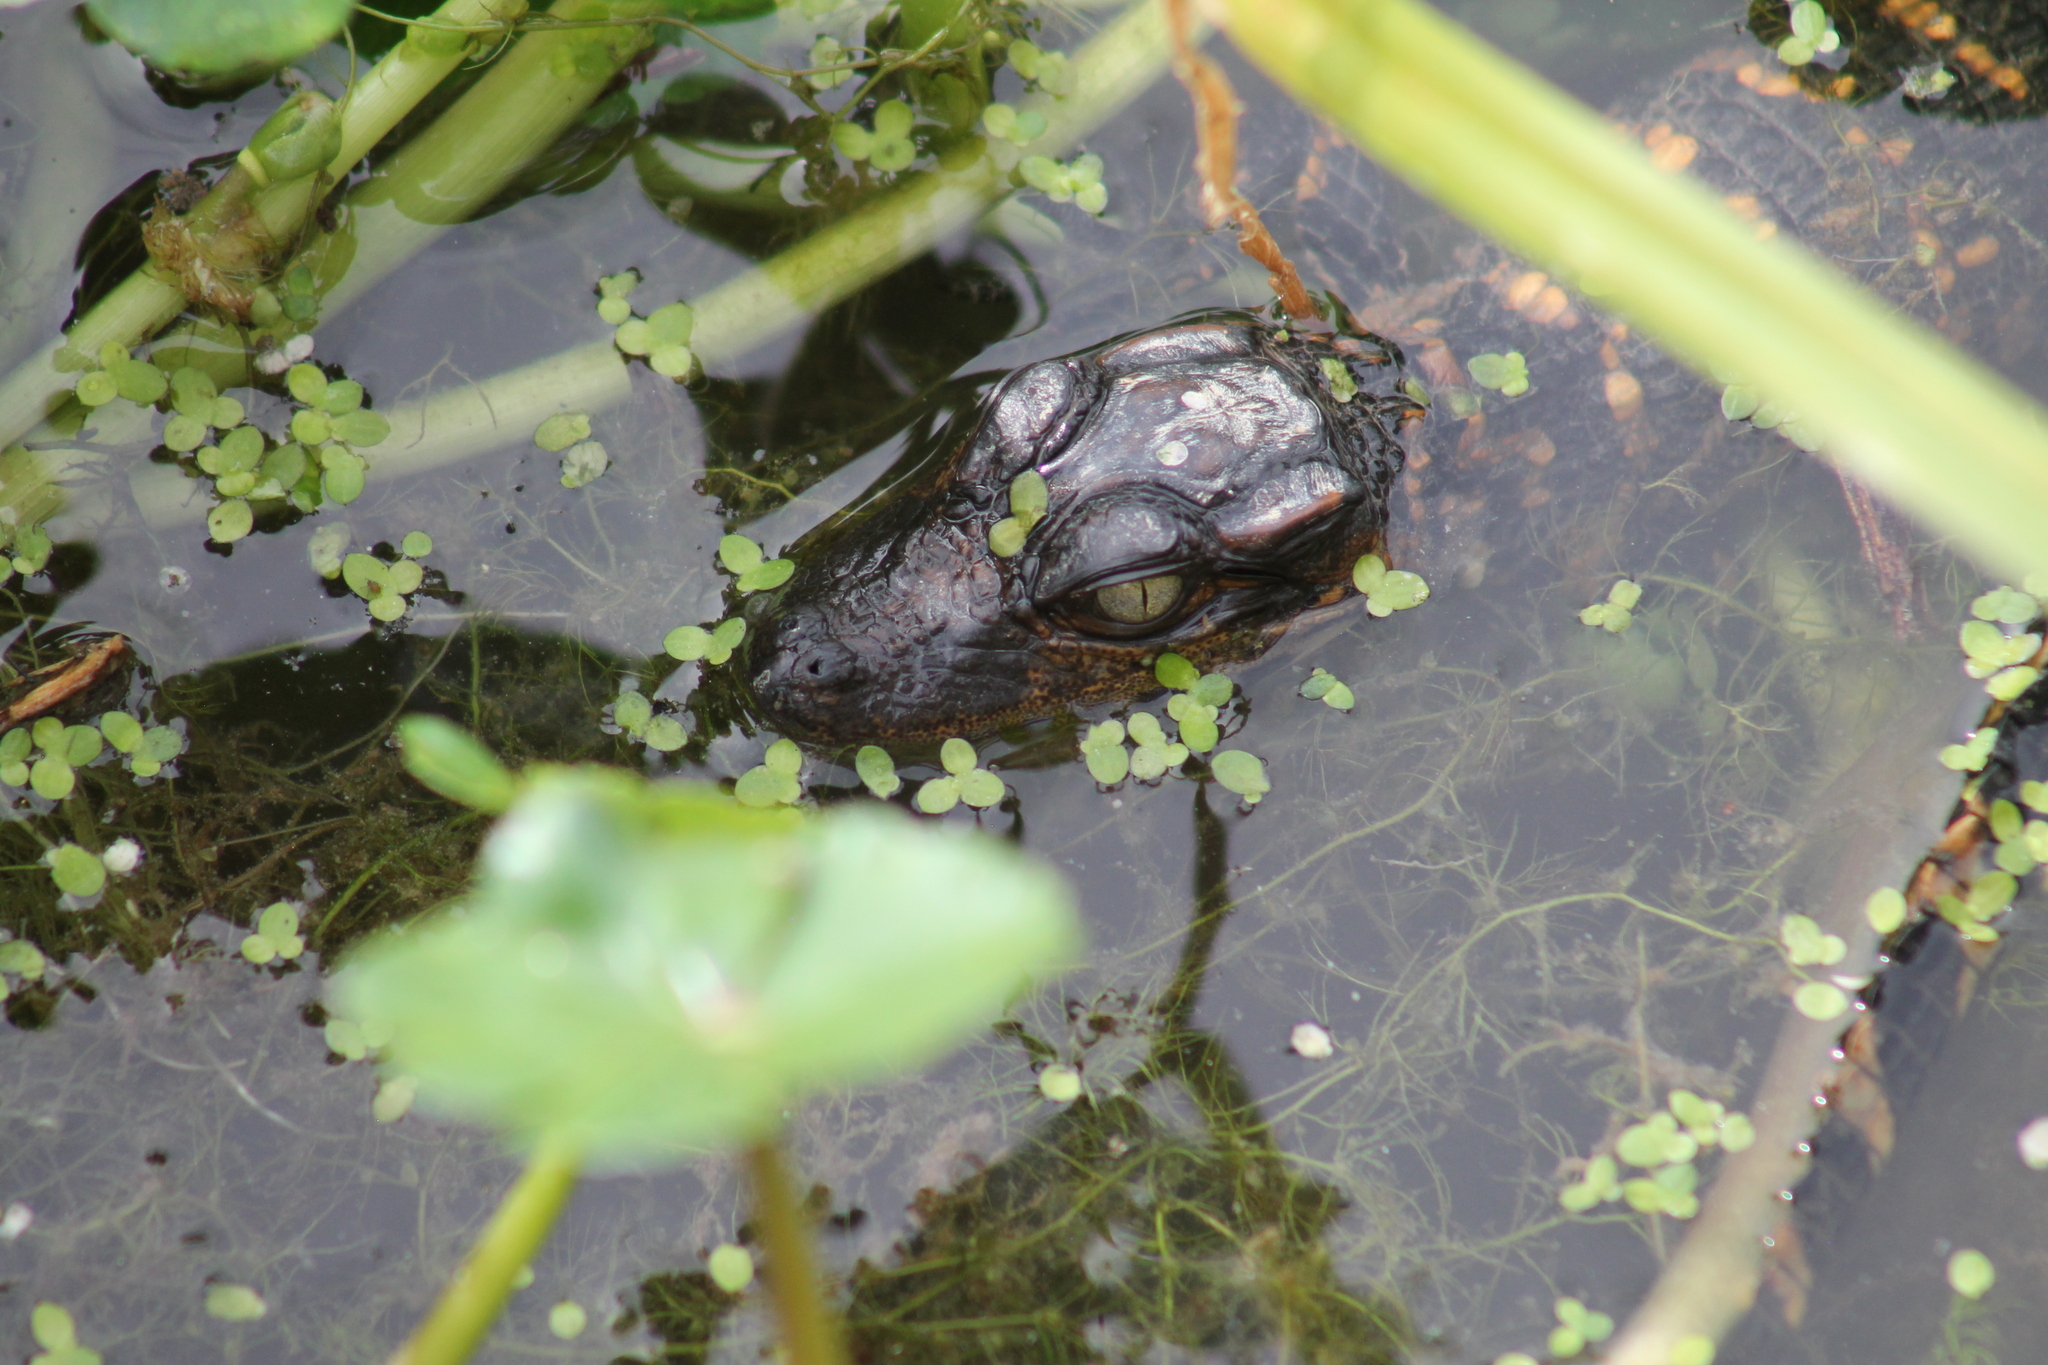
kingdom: Animalia
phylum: Chordata
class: Crocodylia
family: Alligatoridae
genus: Alligator
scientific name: Alligator mississippiensis
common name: American alligator
